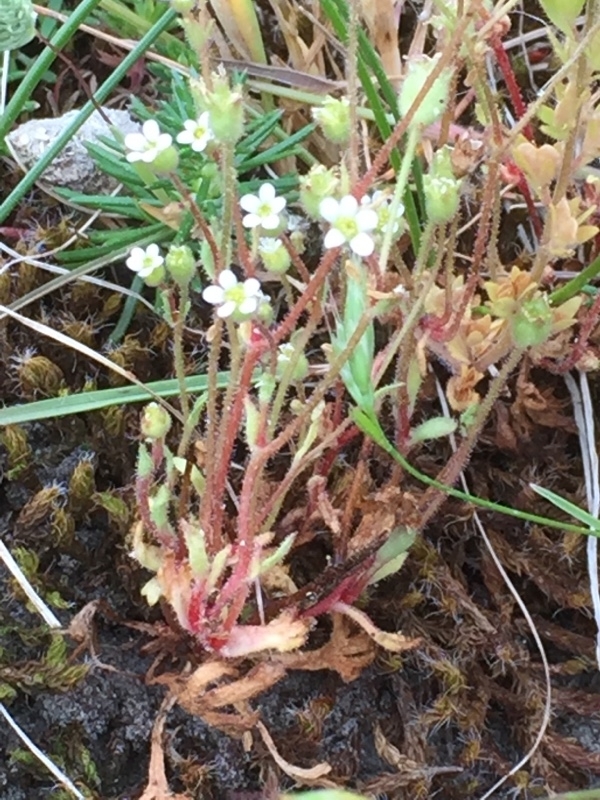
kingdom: Plantae
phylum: Tracheophyta
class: Magnoliopsida
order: Saxifragales
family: Saxifragaceae
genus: Saxifraga
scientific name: Saxifraga tridactylites
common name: Rue-leaved saxifrage
